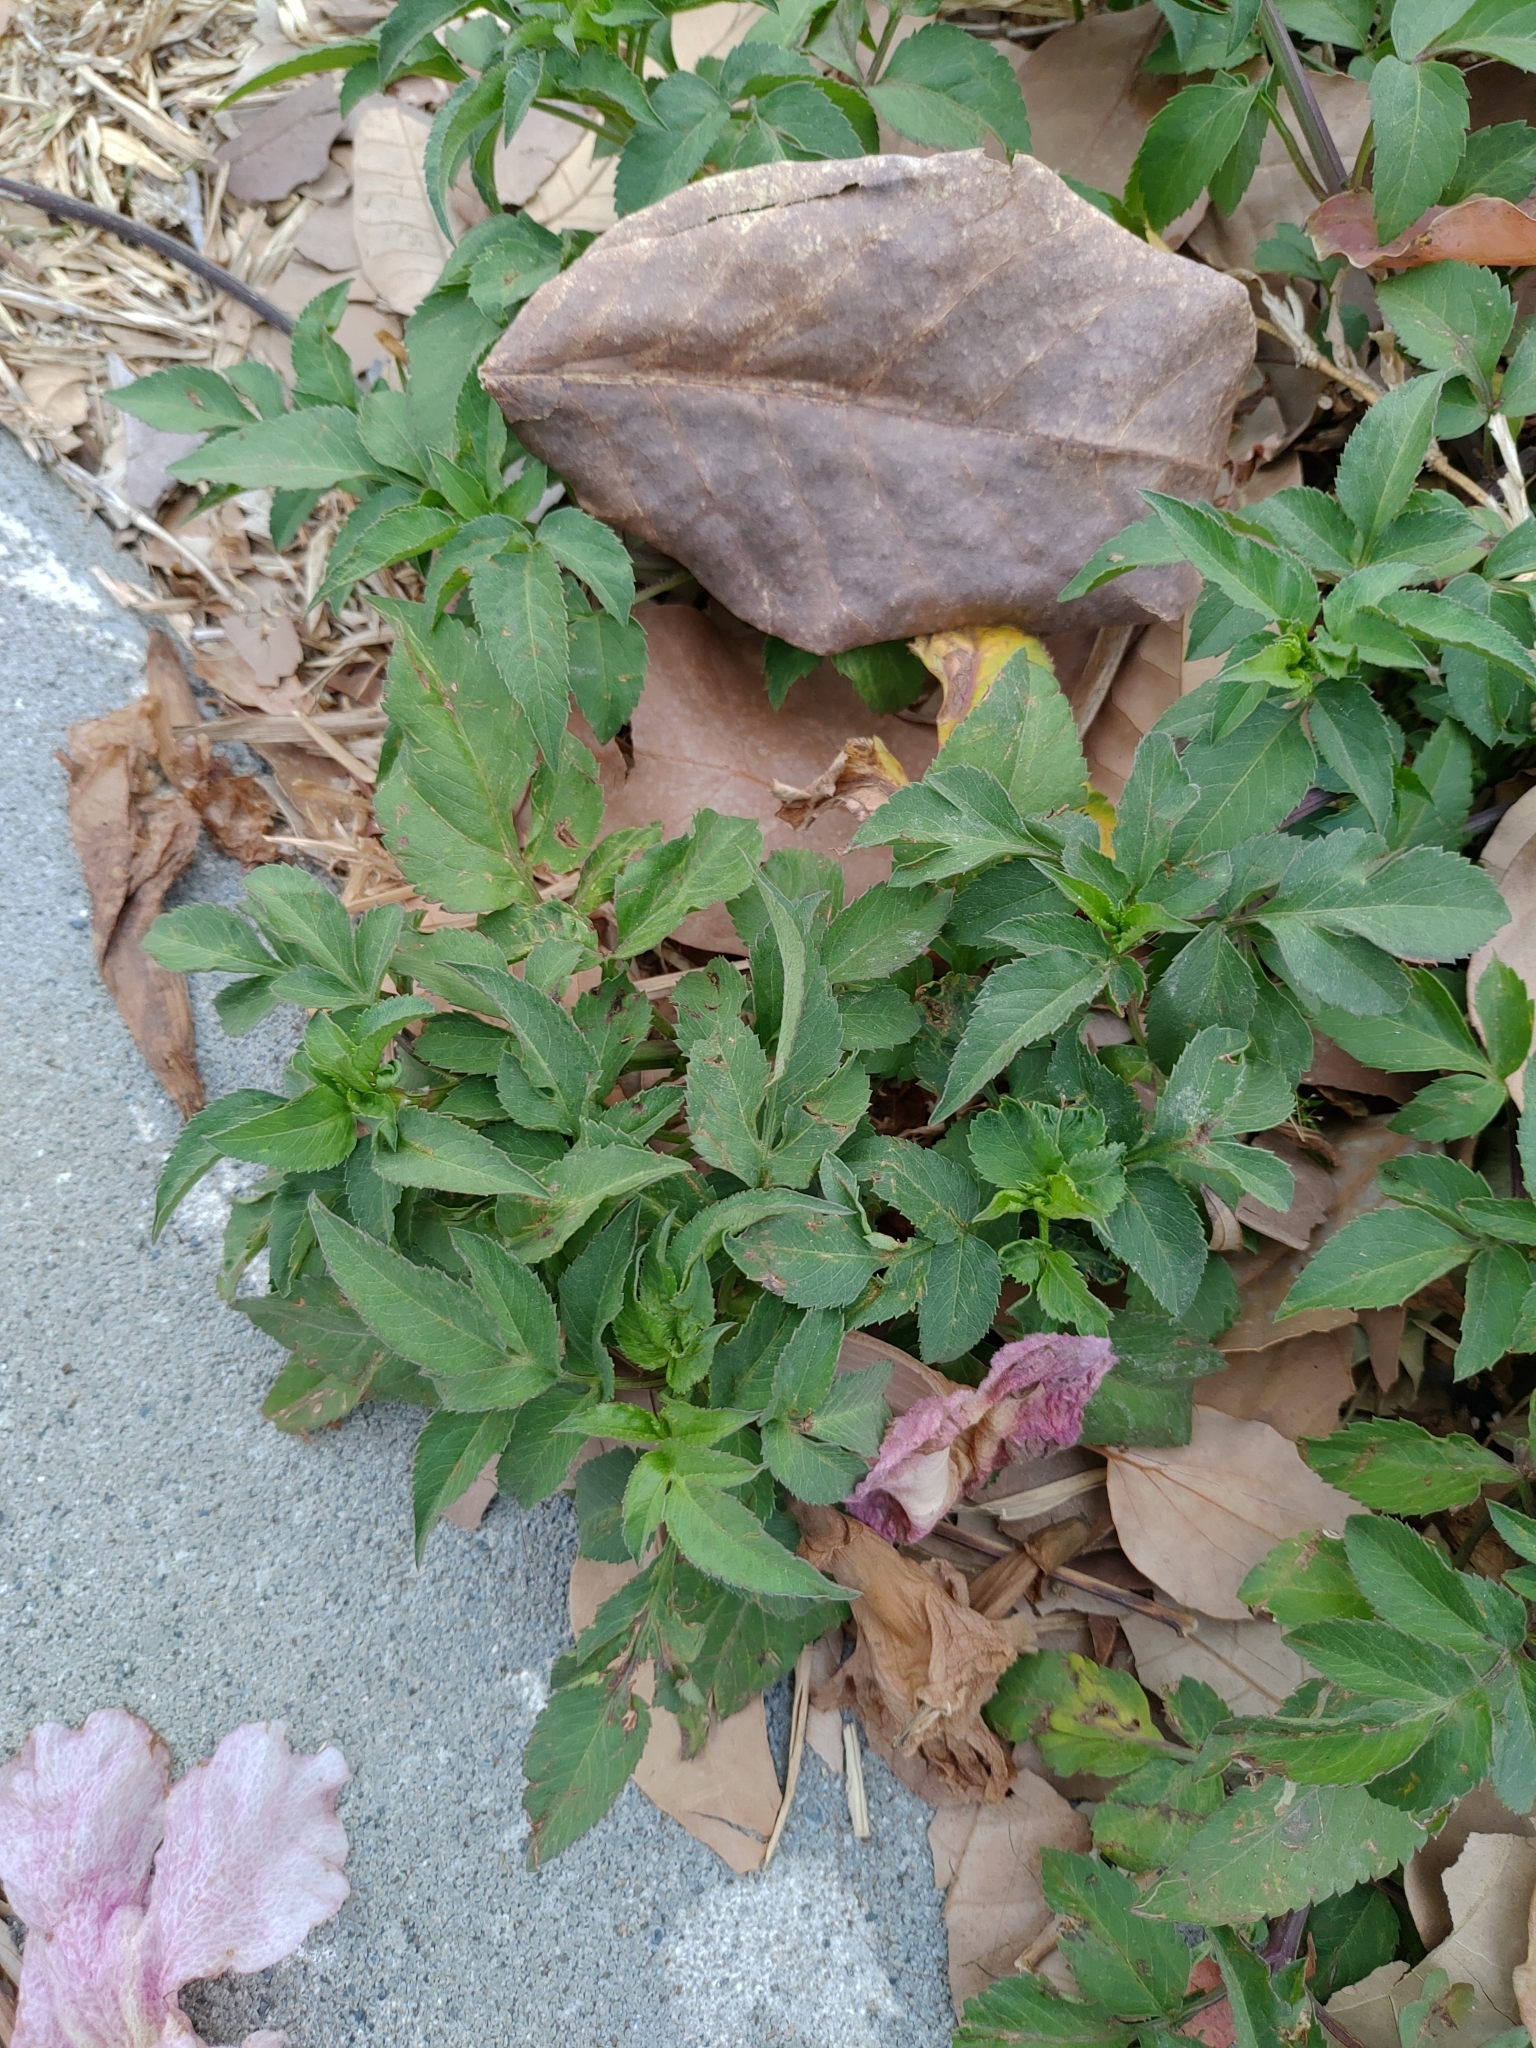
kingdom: Plantae
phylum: Tracheophyta
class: Magnoliopsida
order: Asterales
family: Asteraceae
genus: Bidens
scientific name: Bidens alba
